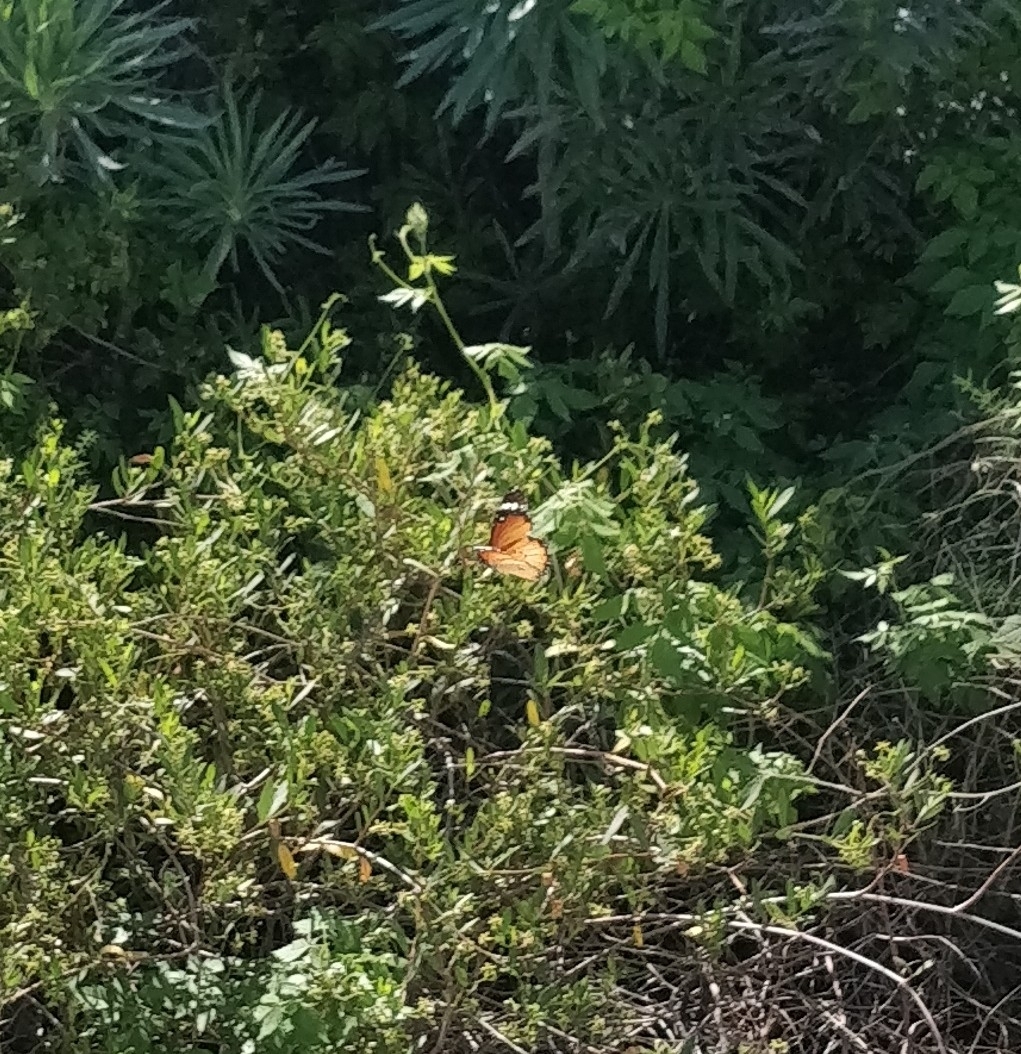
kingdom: Animalia
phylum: Arthropoda
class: Insecta
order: Lepidoptera
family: Nymphalidae
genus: Danaus
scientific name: Danaus chrysippus
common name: Plain tiger
